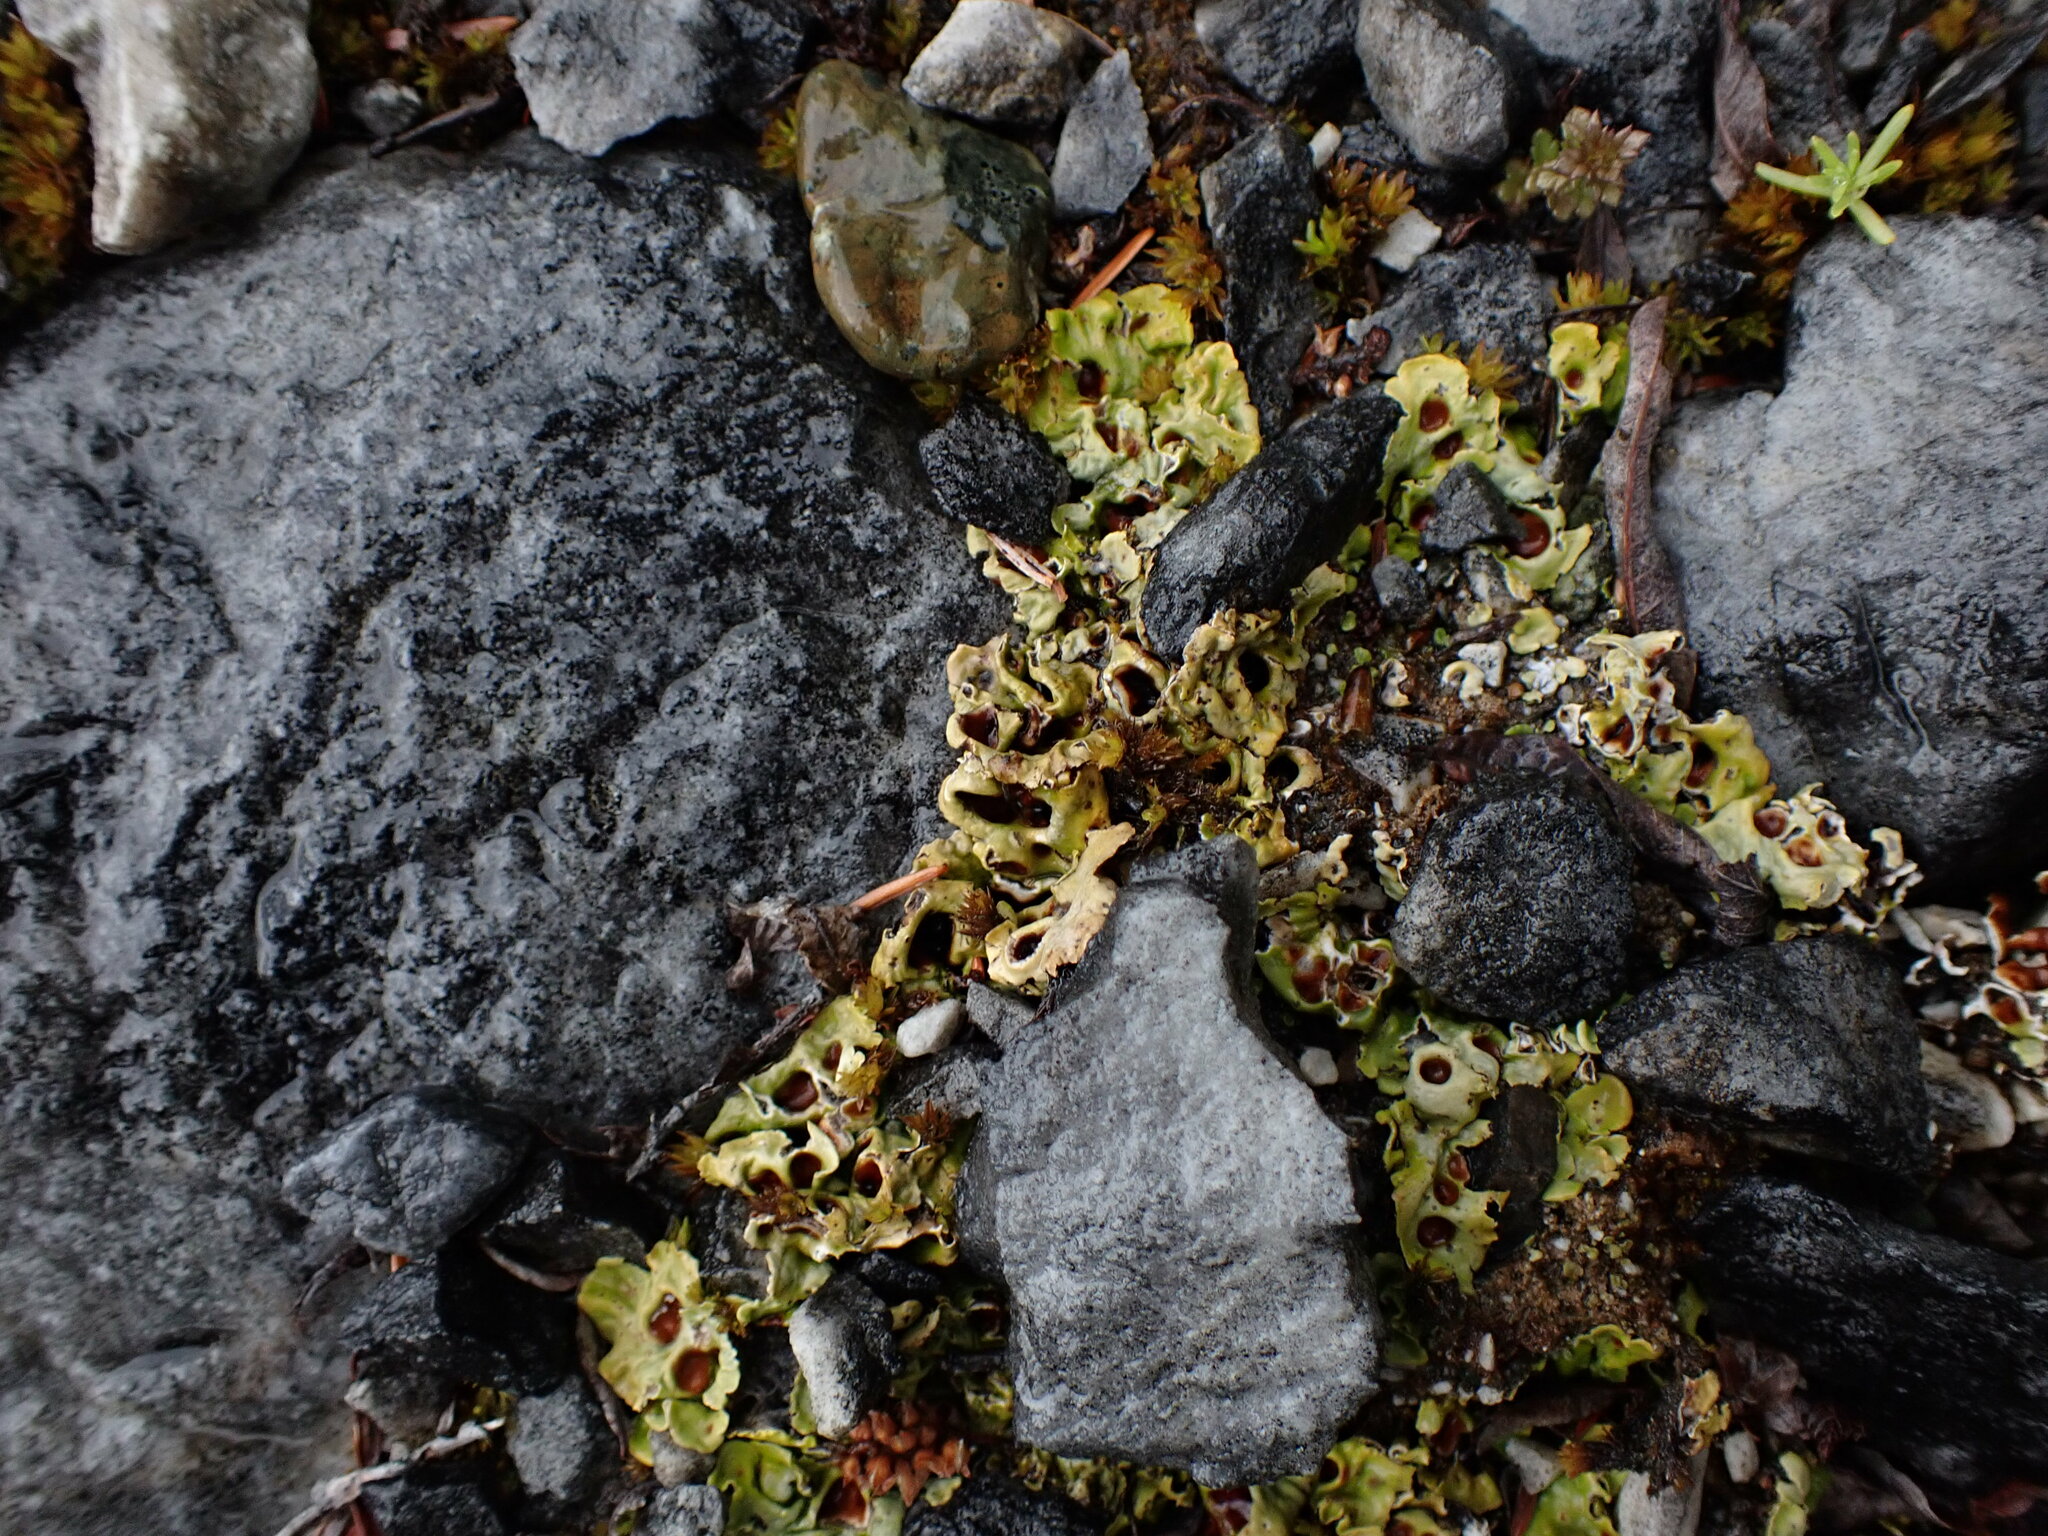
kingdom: Fungi
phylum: Ascomycota
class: Lecanoromycetes
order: Peltigerales
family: Peltigeraceae
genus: Solorina
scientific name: Solorina saccata
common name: Common chocolate chip lichen
